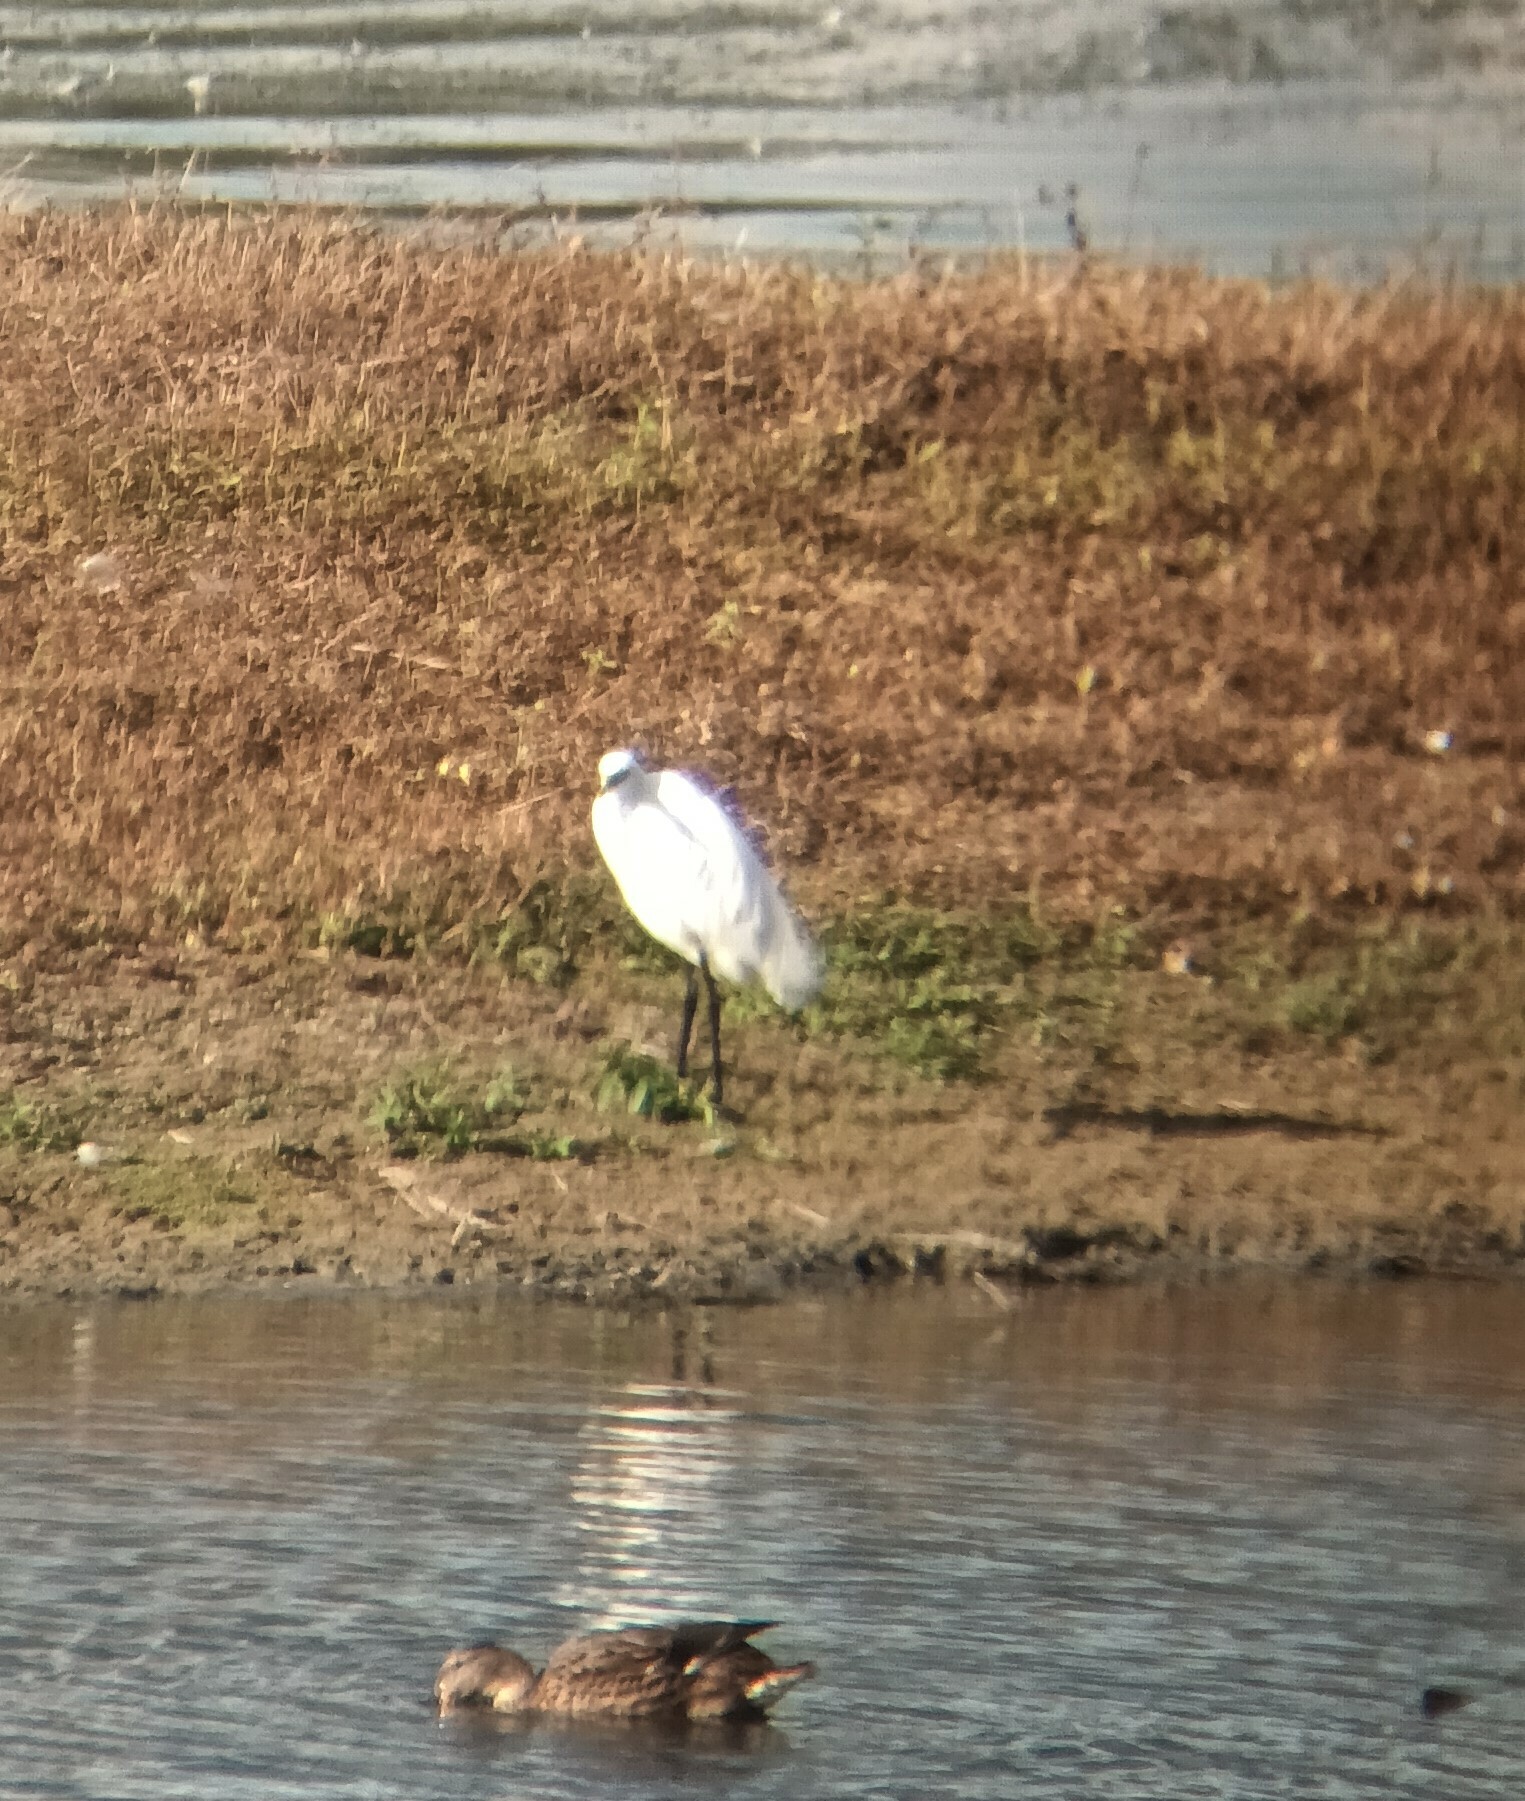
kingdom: Animalia
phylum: Chordata
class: Aves
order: Pelecaniformes
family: Ardeidae
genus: Egretta
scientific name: Egretta garzetta
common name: Little egret
